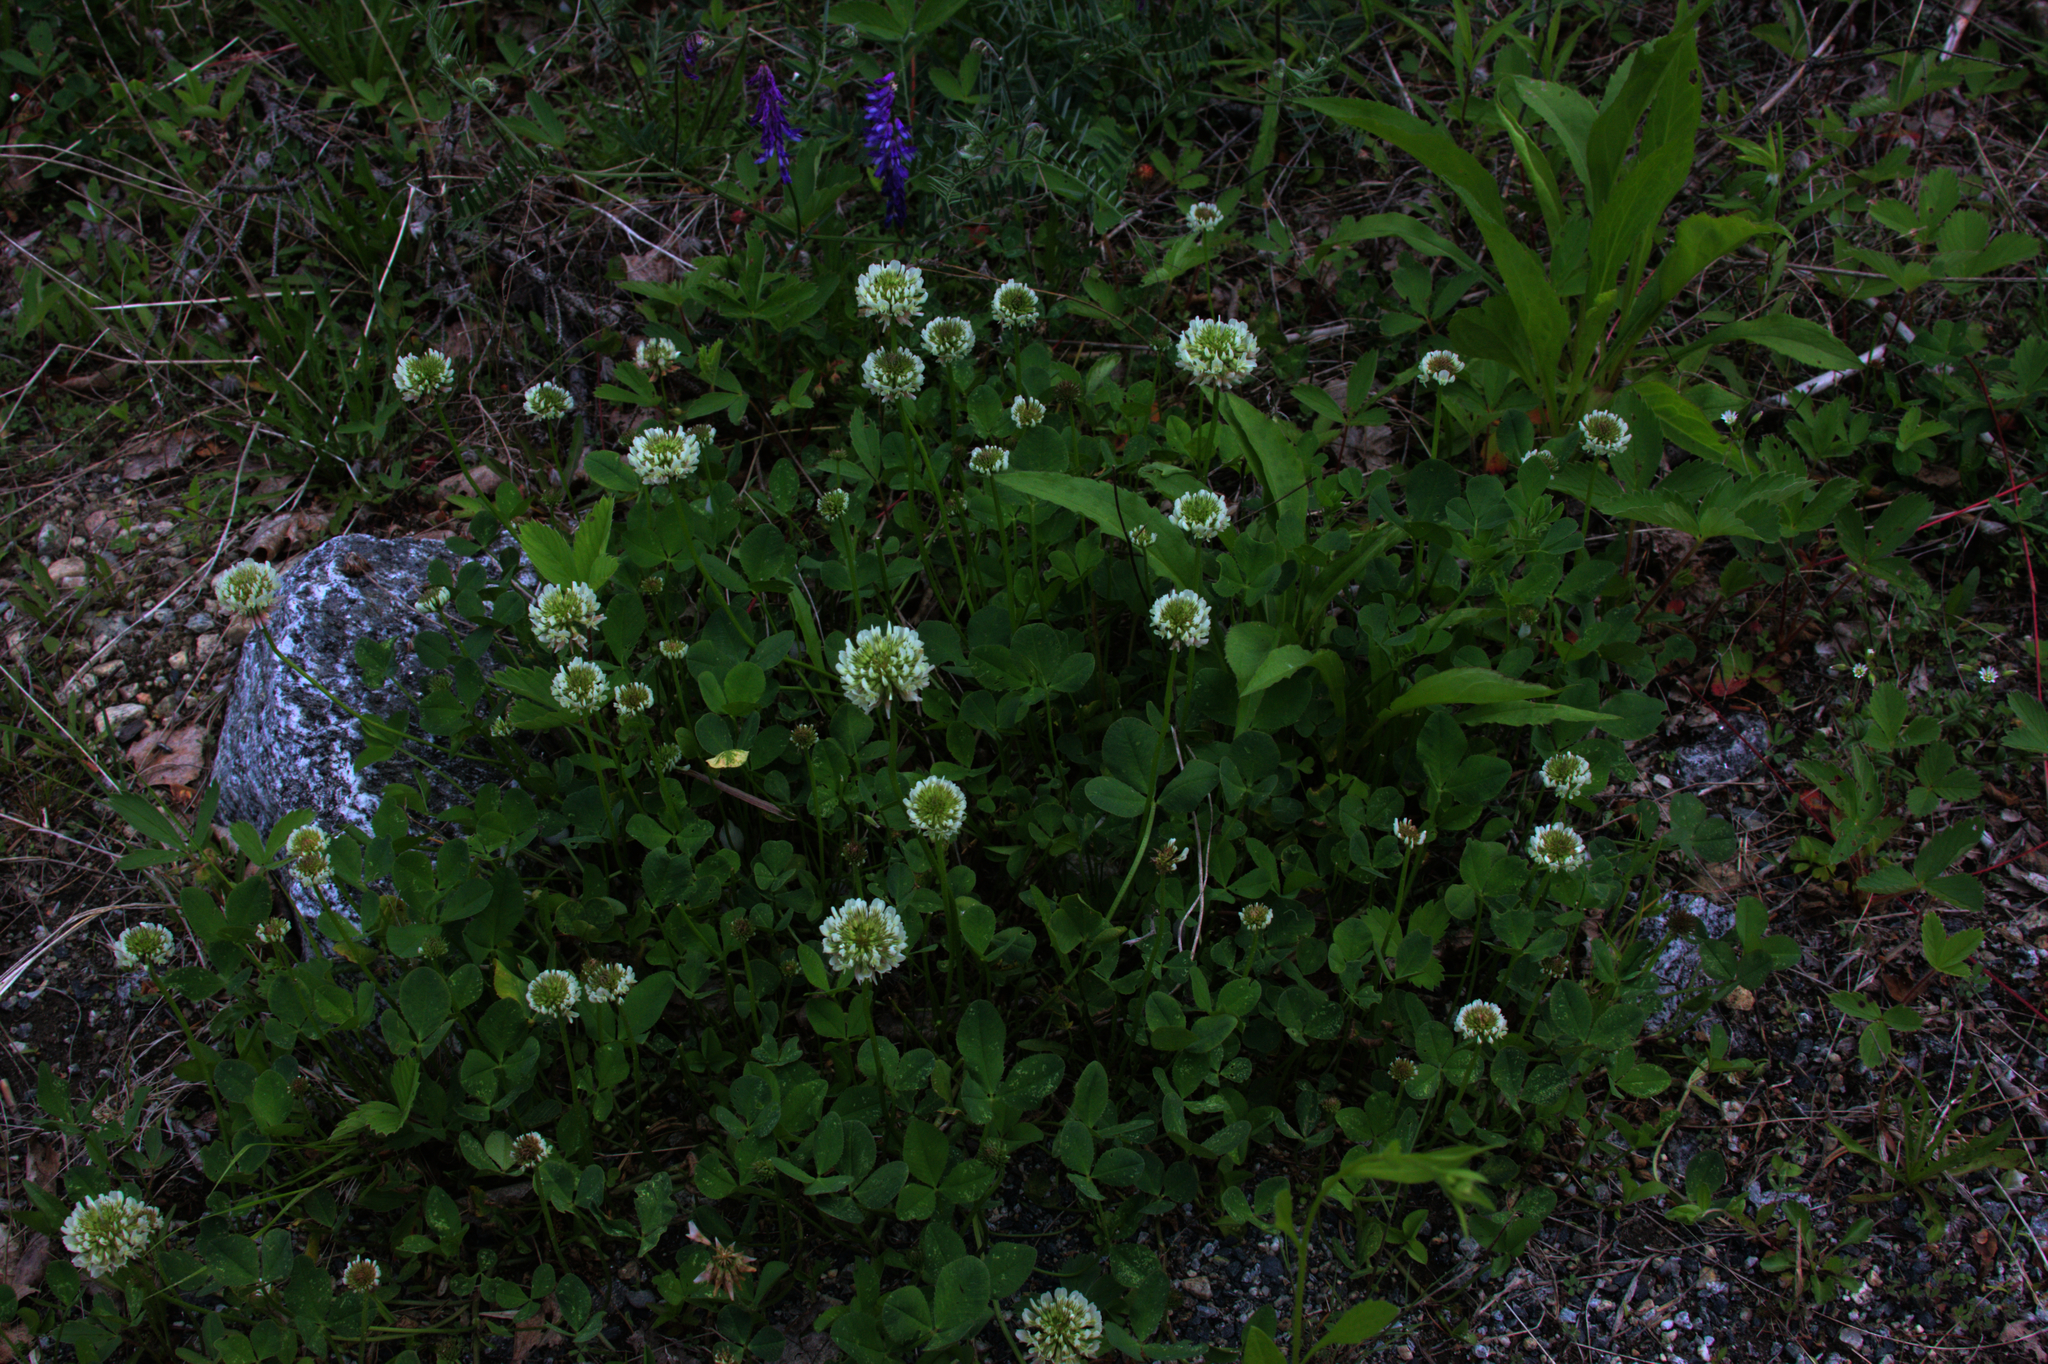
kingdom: Plantae
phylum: Tracheophyta
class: Magnoliopsida
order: Fabales
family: Fabaceae
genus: Trifolium
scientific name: Trifolium repens
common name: White clover
